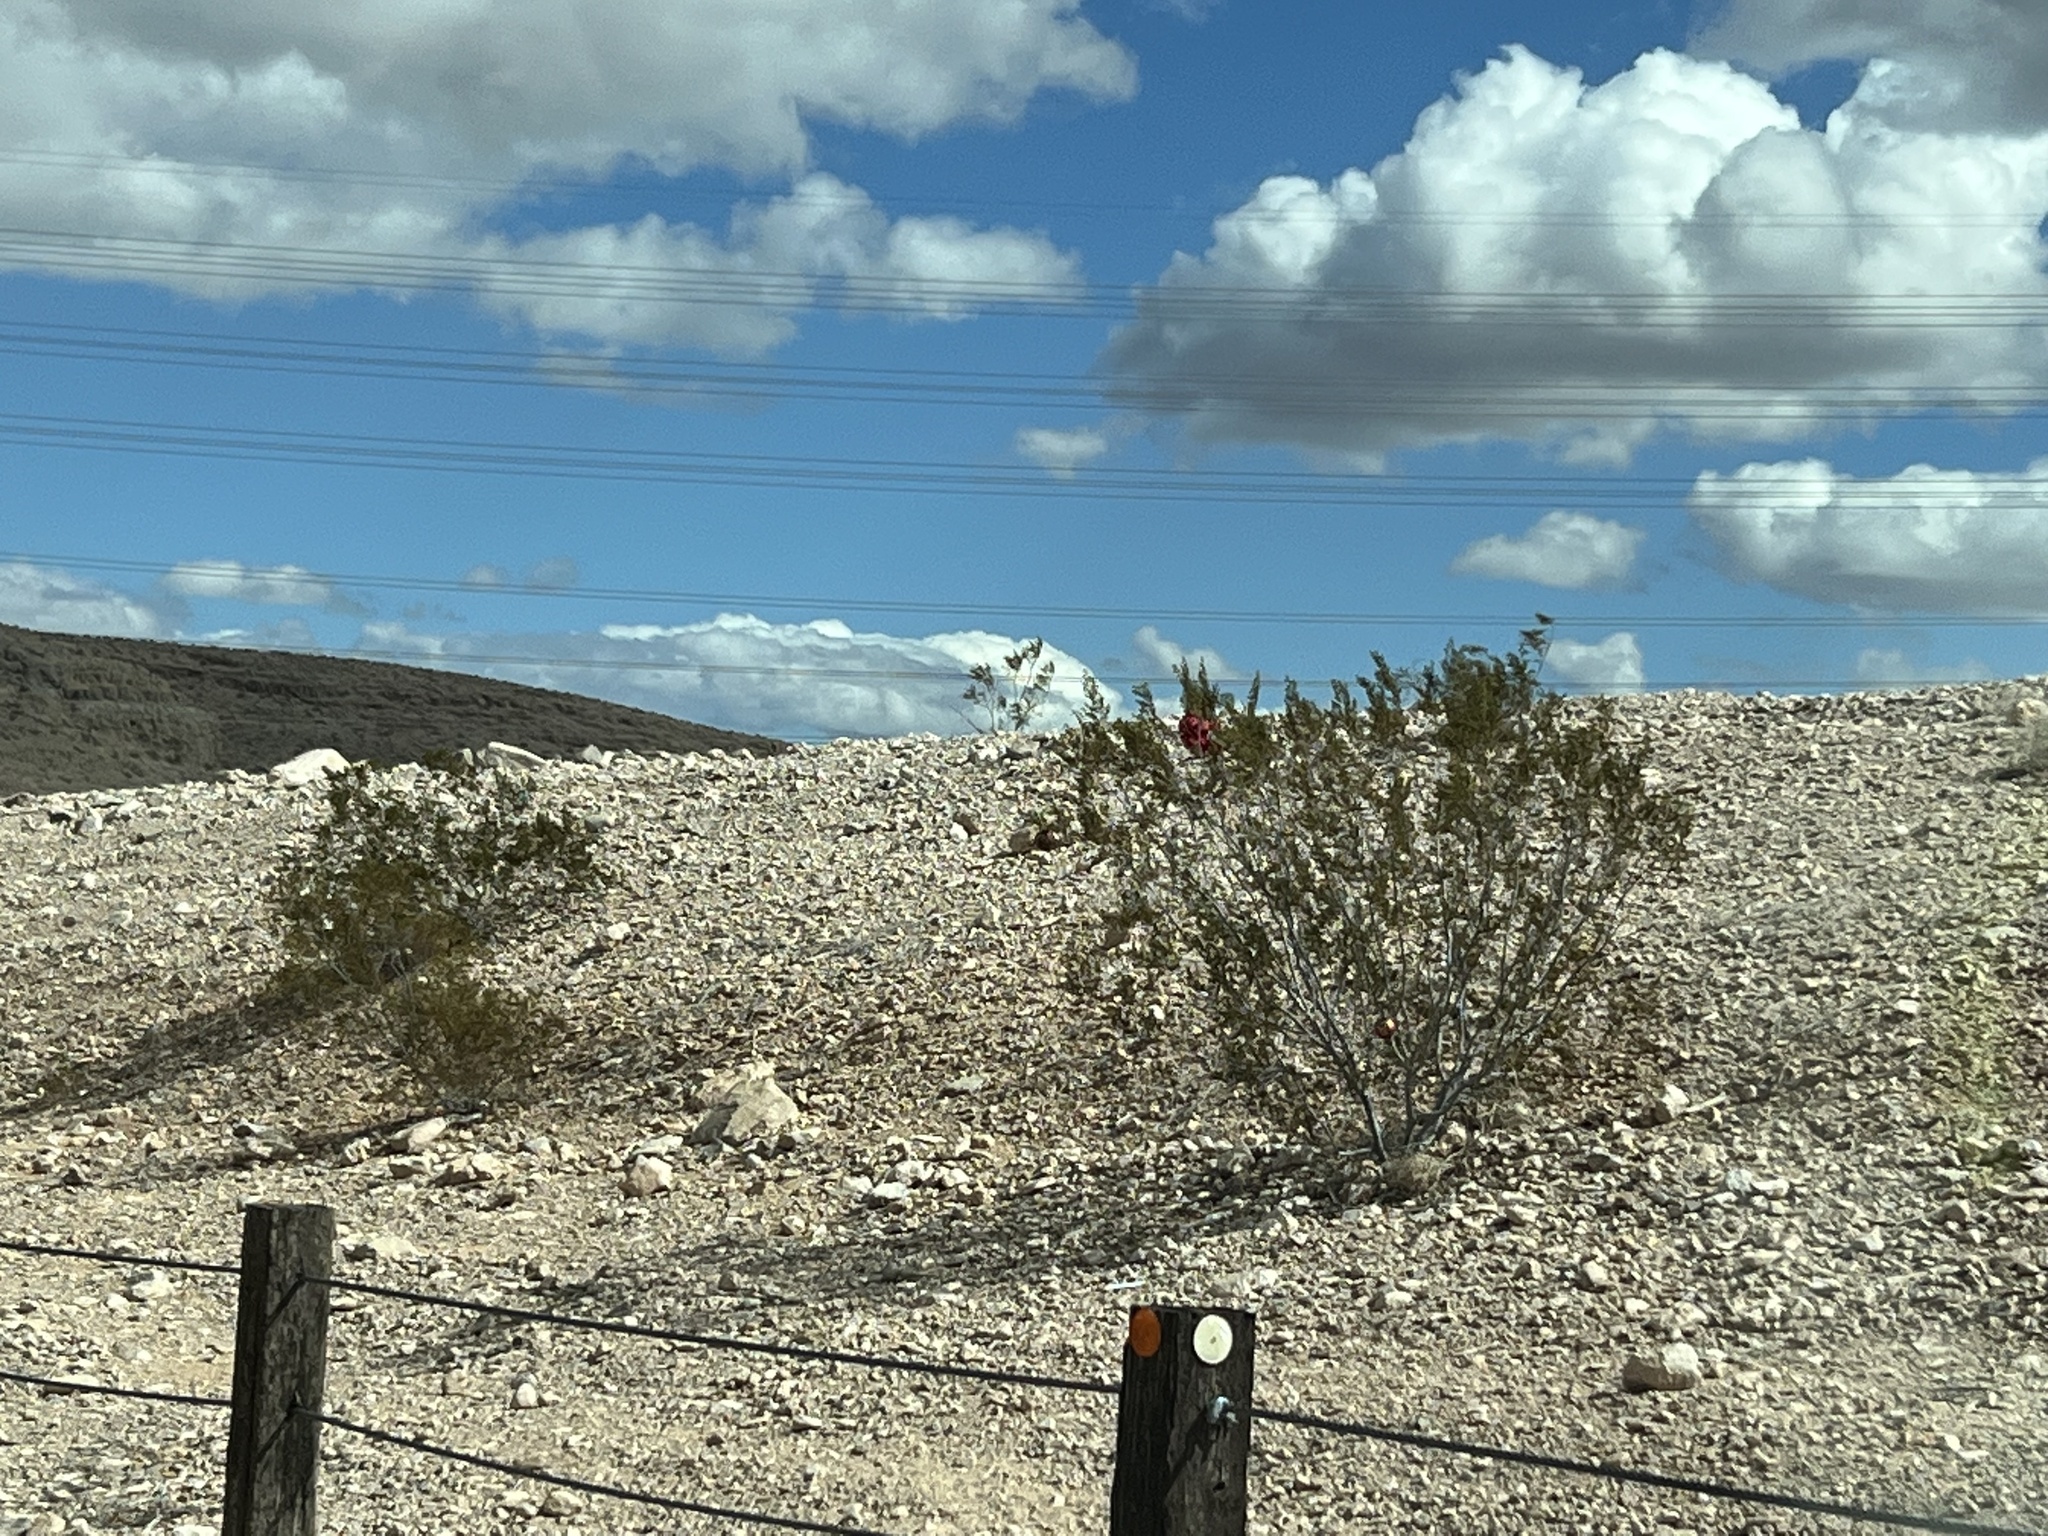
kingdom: Plantae
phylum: Tracheophyta
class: Magnoliopsida
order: Zygophyllales
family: Zygophyllaceae
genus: Larrea
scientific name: Larrea tridentata
